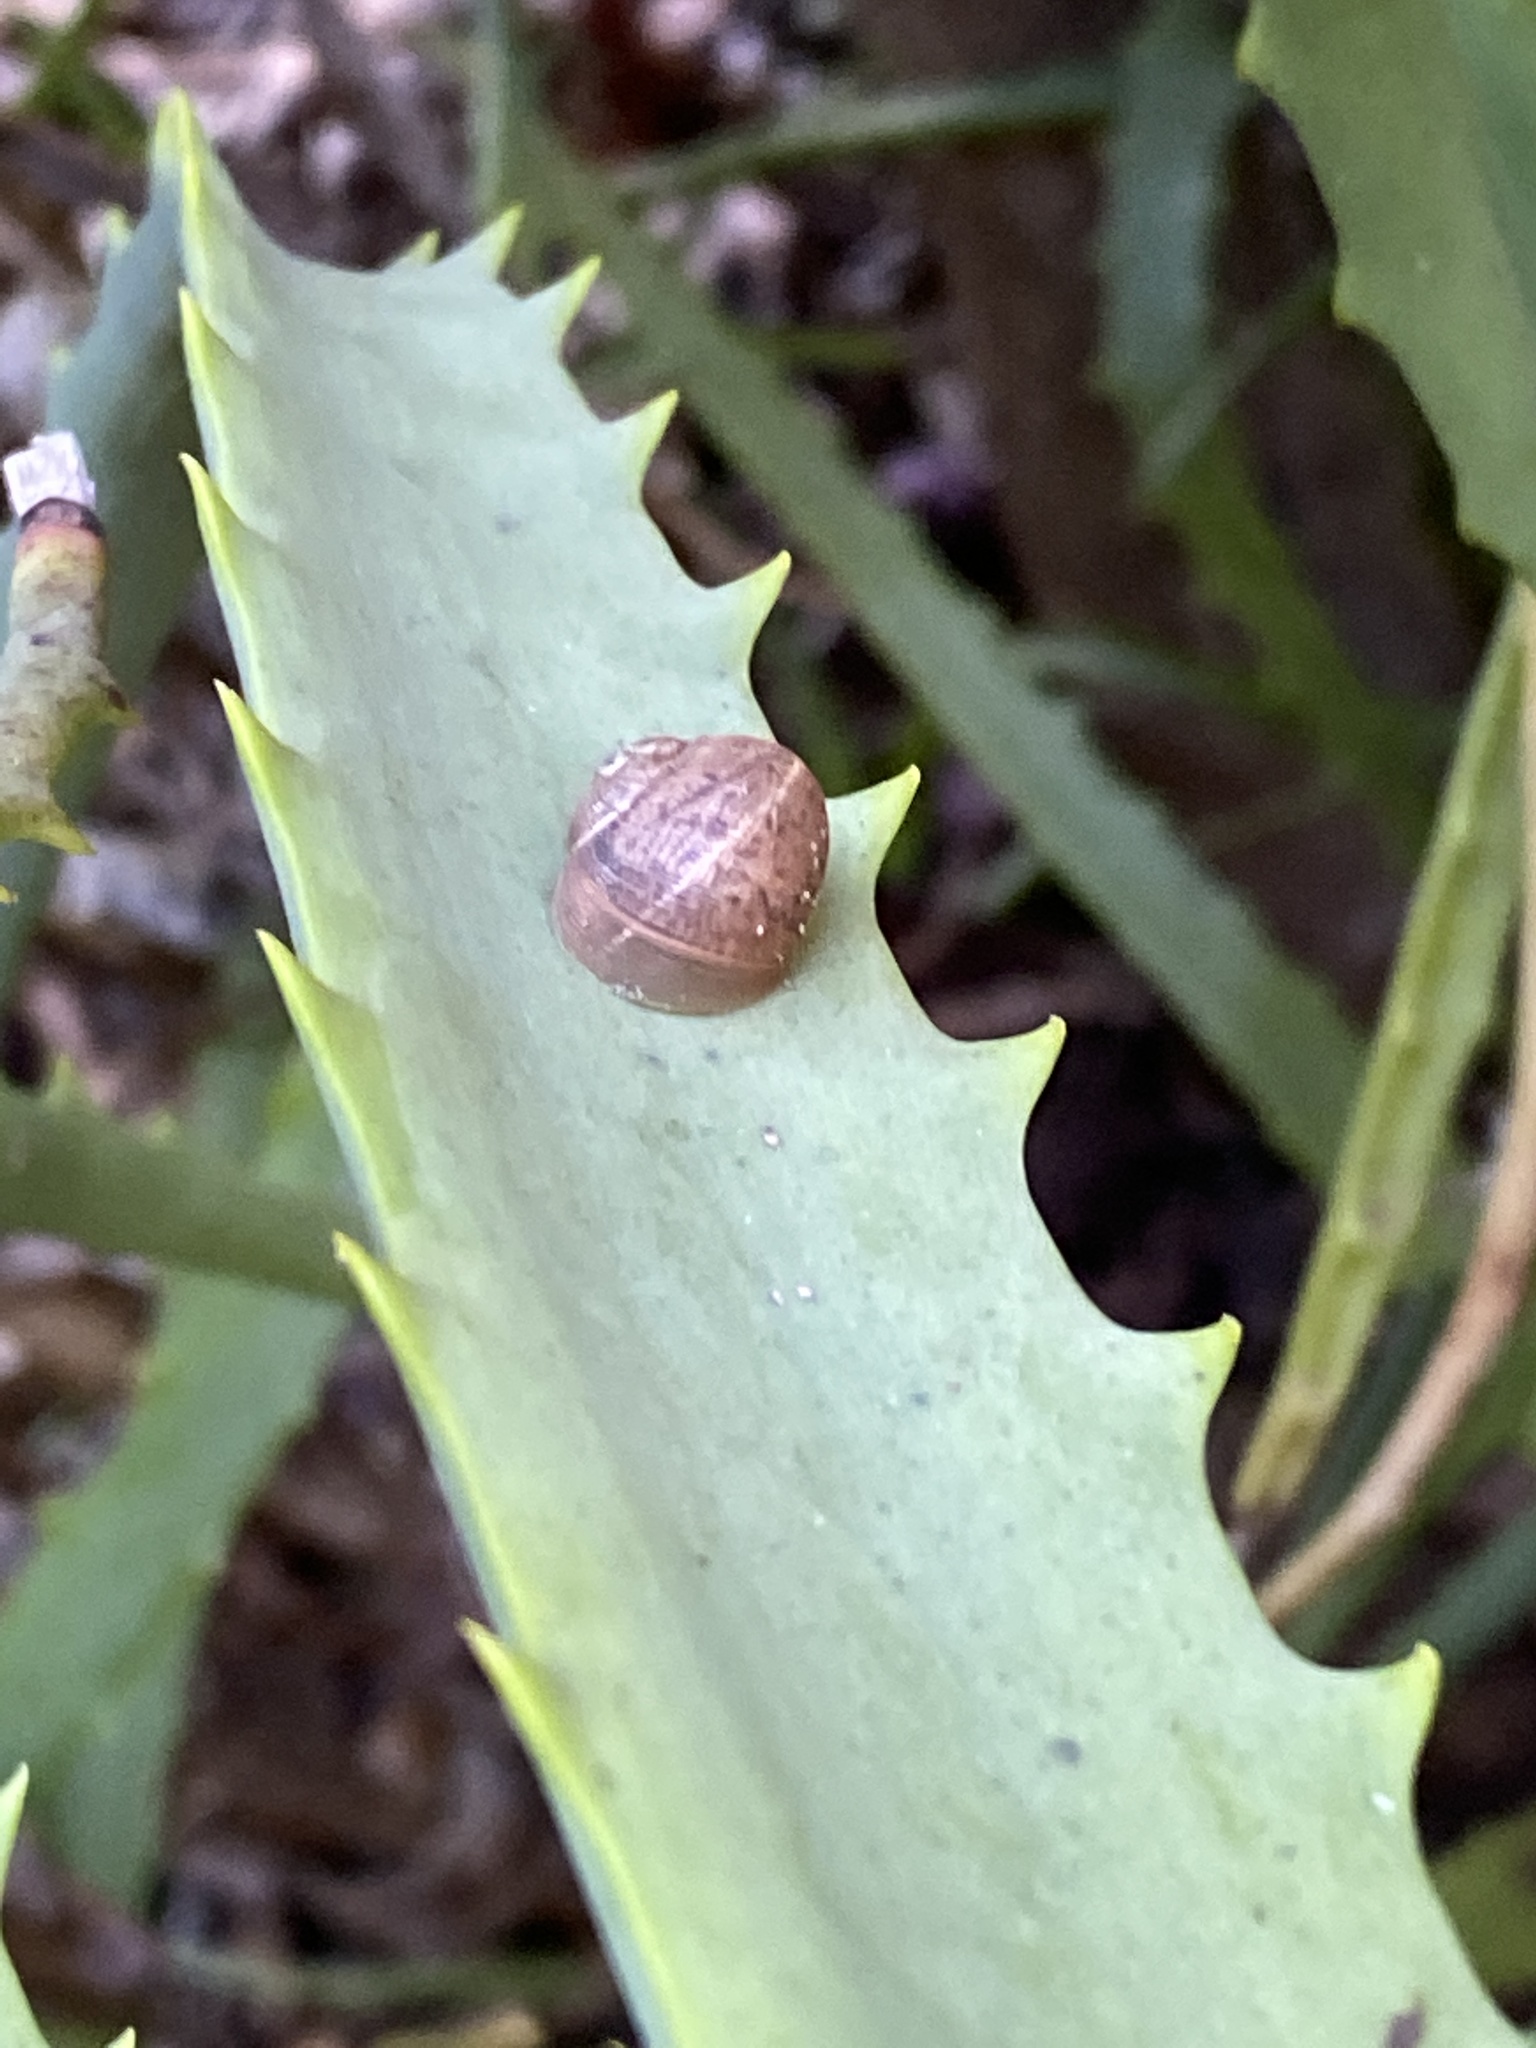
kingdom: Animalia
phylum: Mollusca
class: Gastropoda
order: Stylommatophora
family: Helicidae
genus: Cornu
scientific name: Cornu aspersum
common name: Brown garden snail
